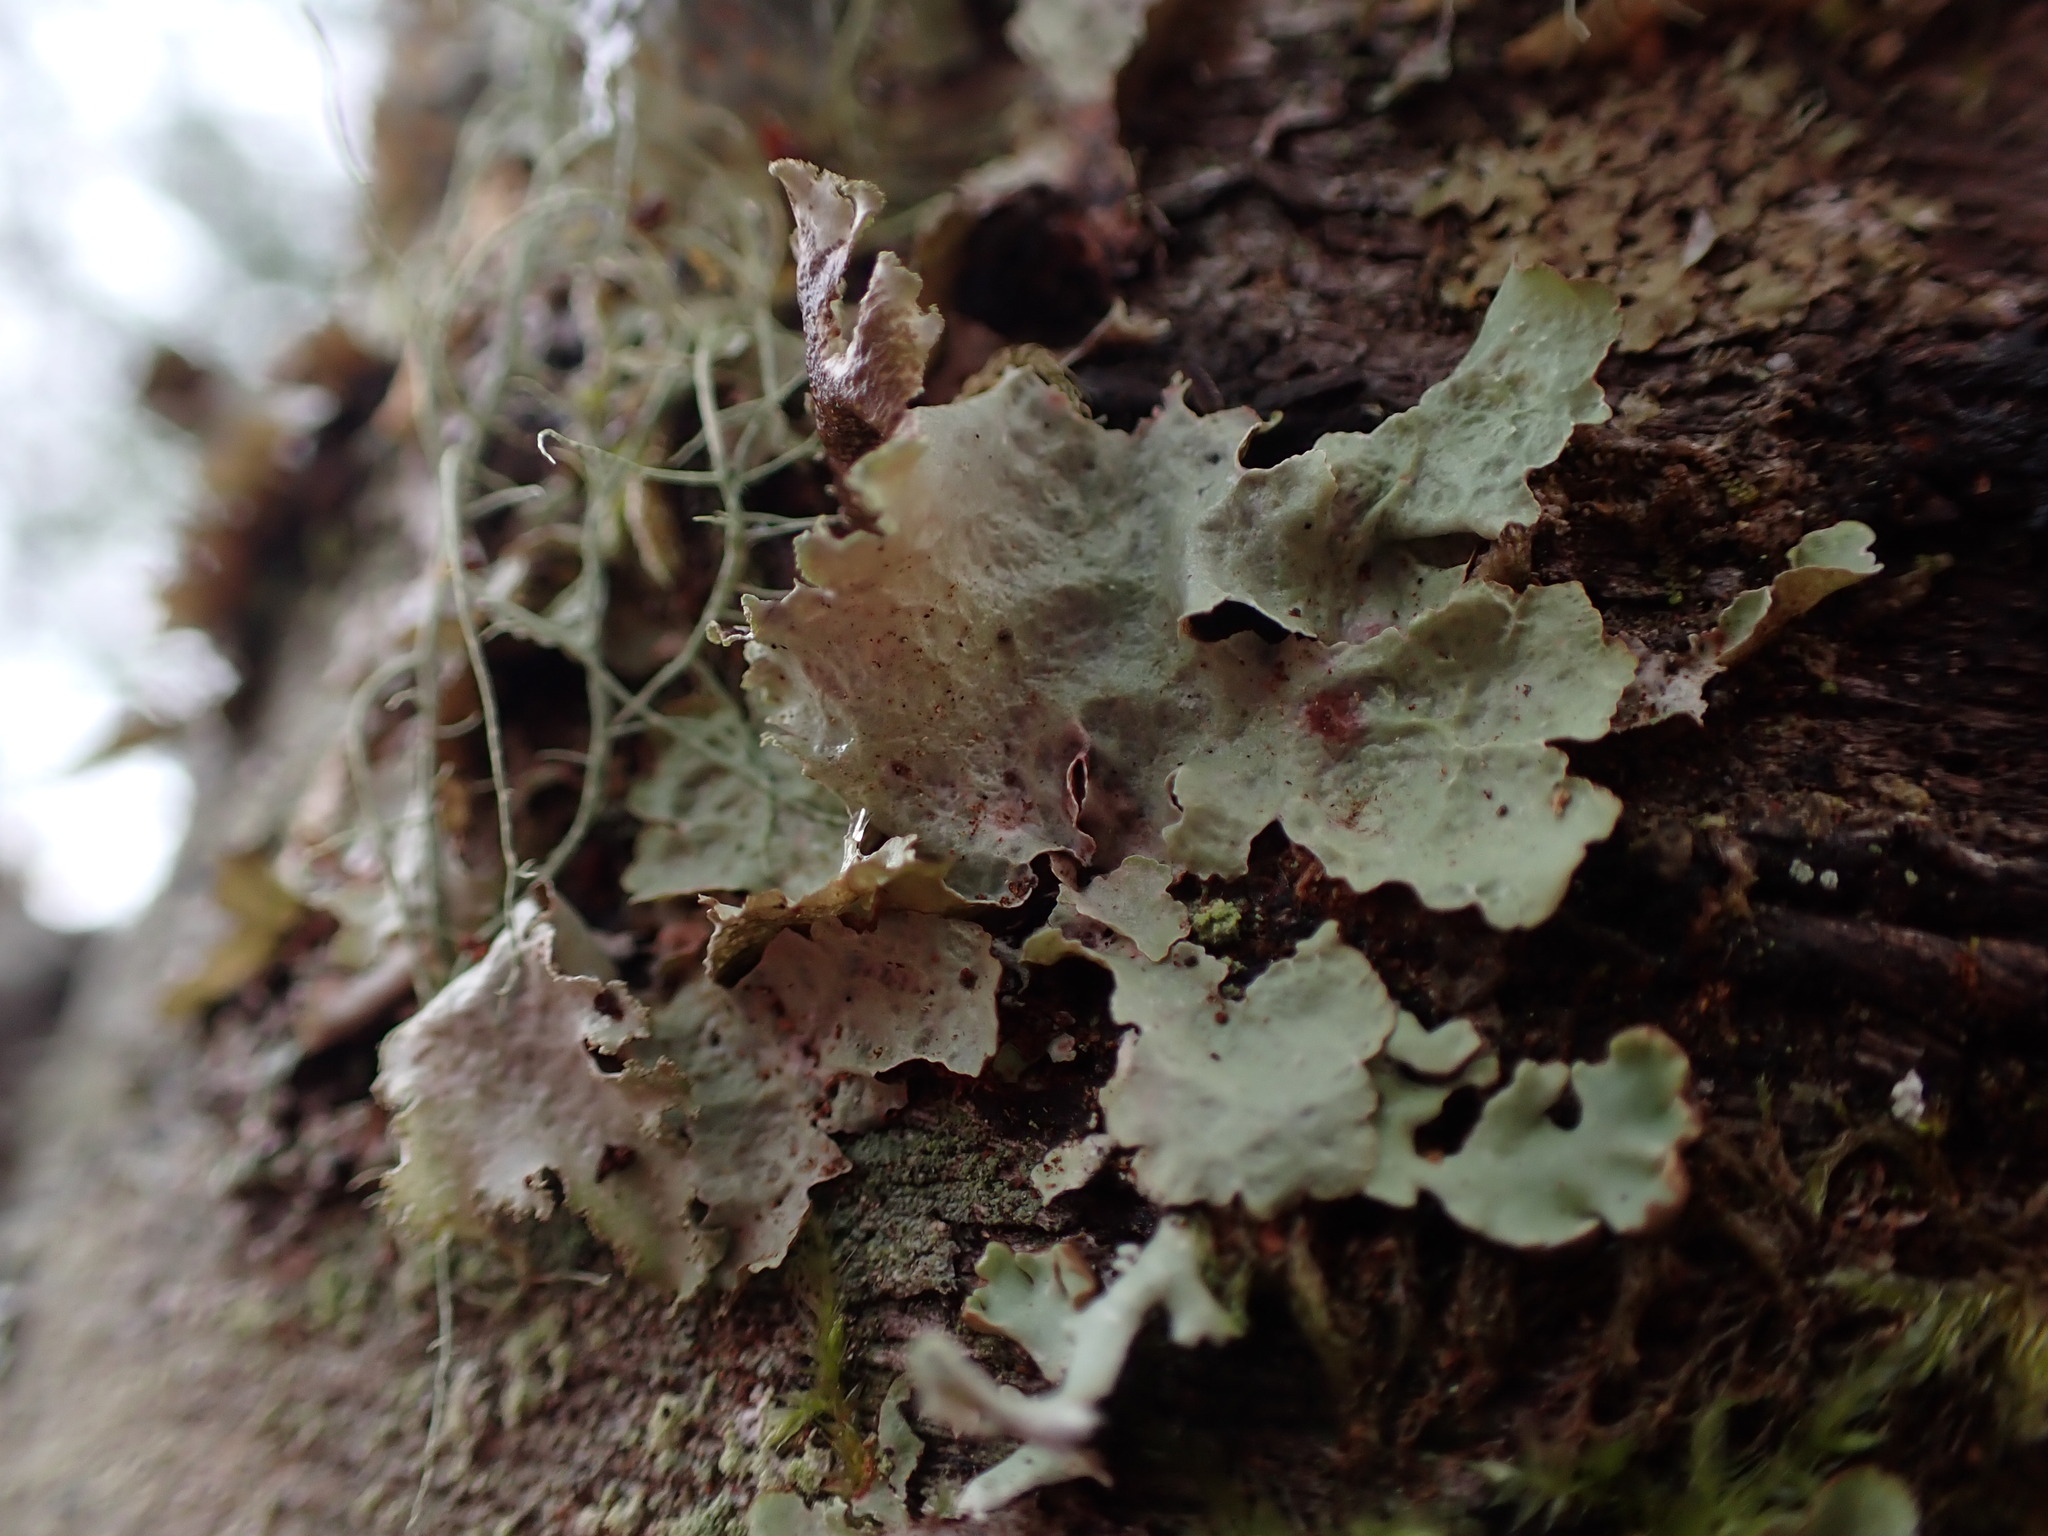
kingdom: Fungi
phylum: Ascomycota
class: Lecanoromycetes
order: Lecanorales
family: Parmeliaceae
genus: Platismatia
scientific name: Platismatia glauca
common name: Varied rag lichen
